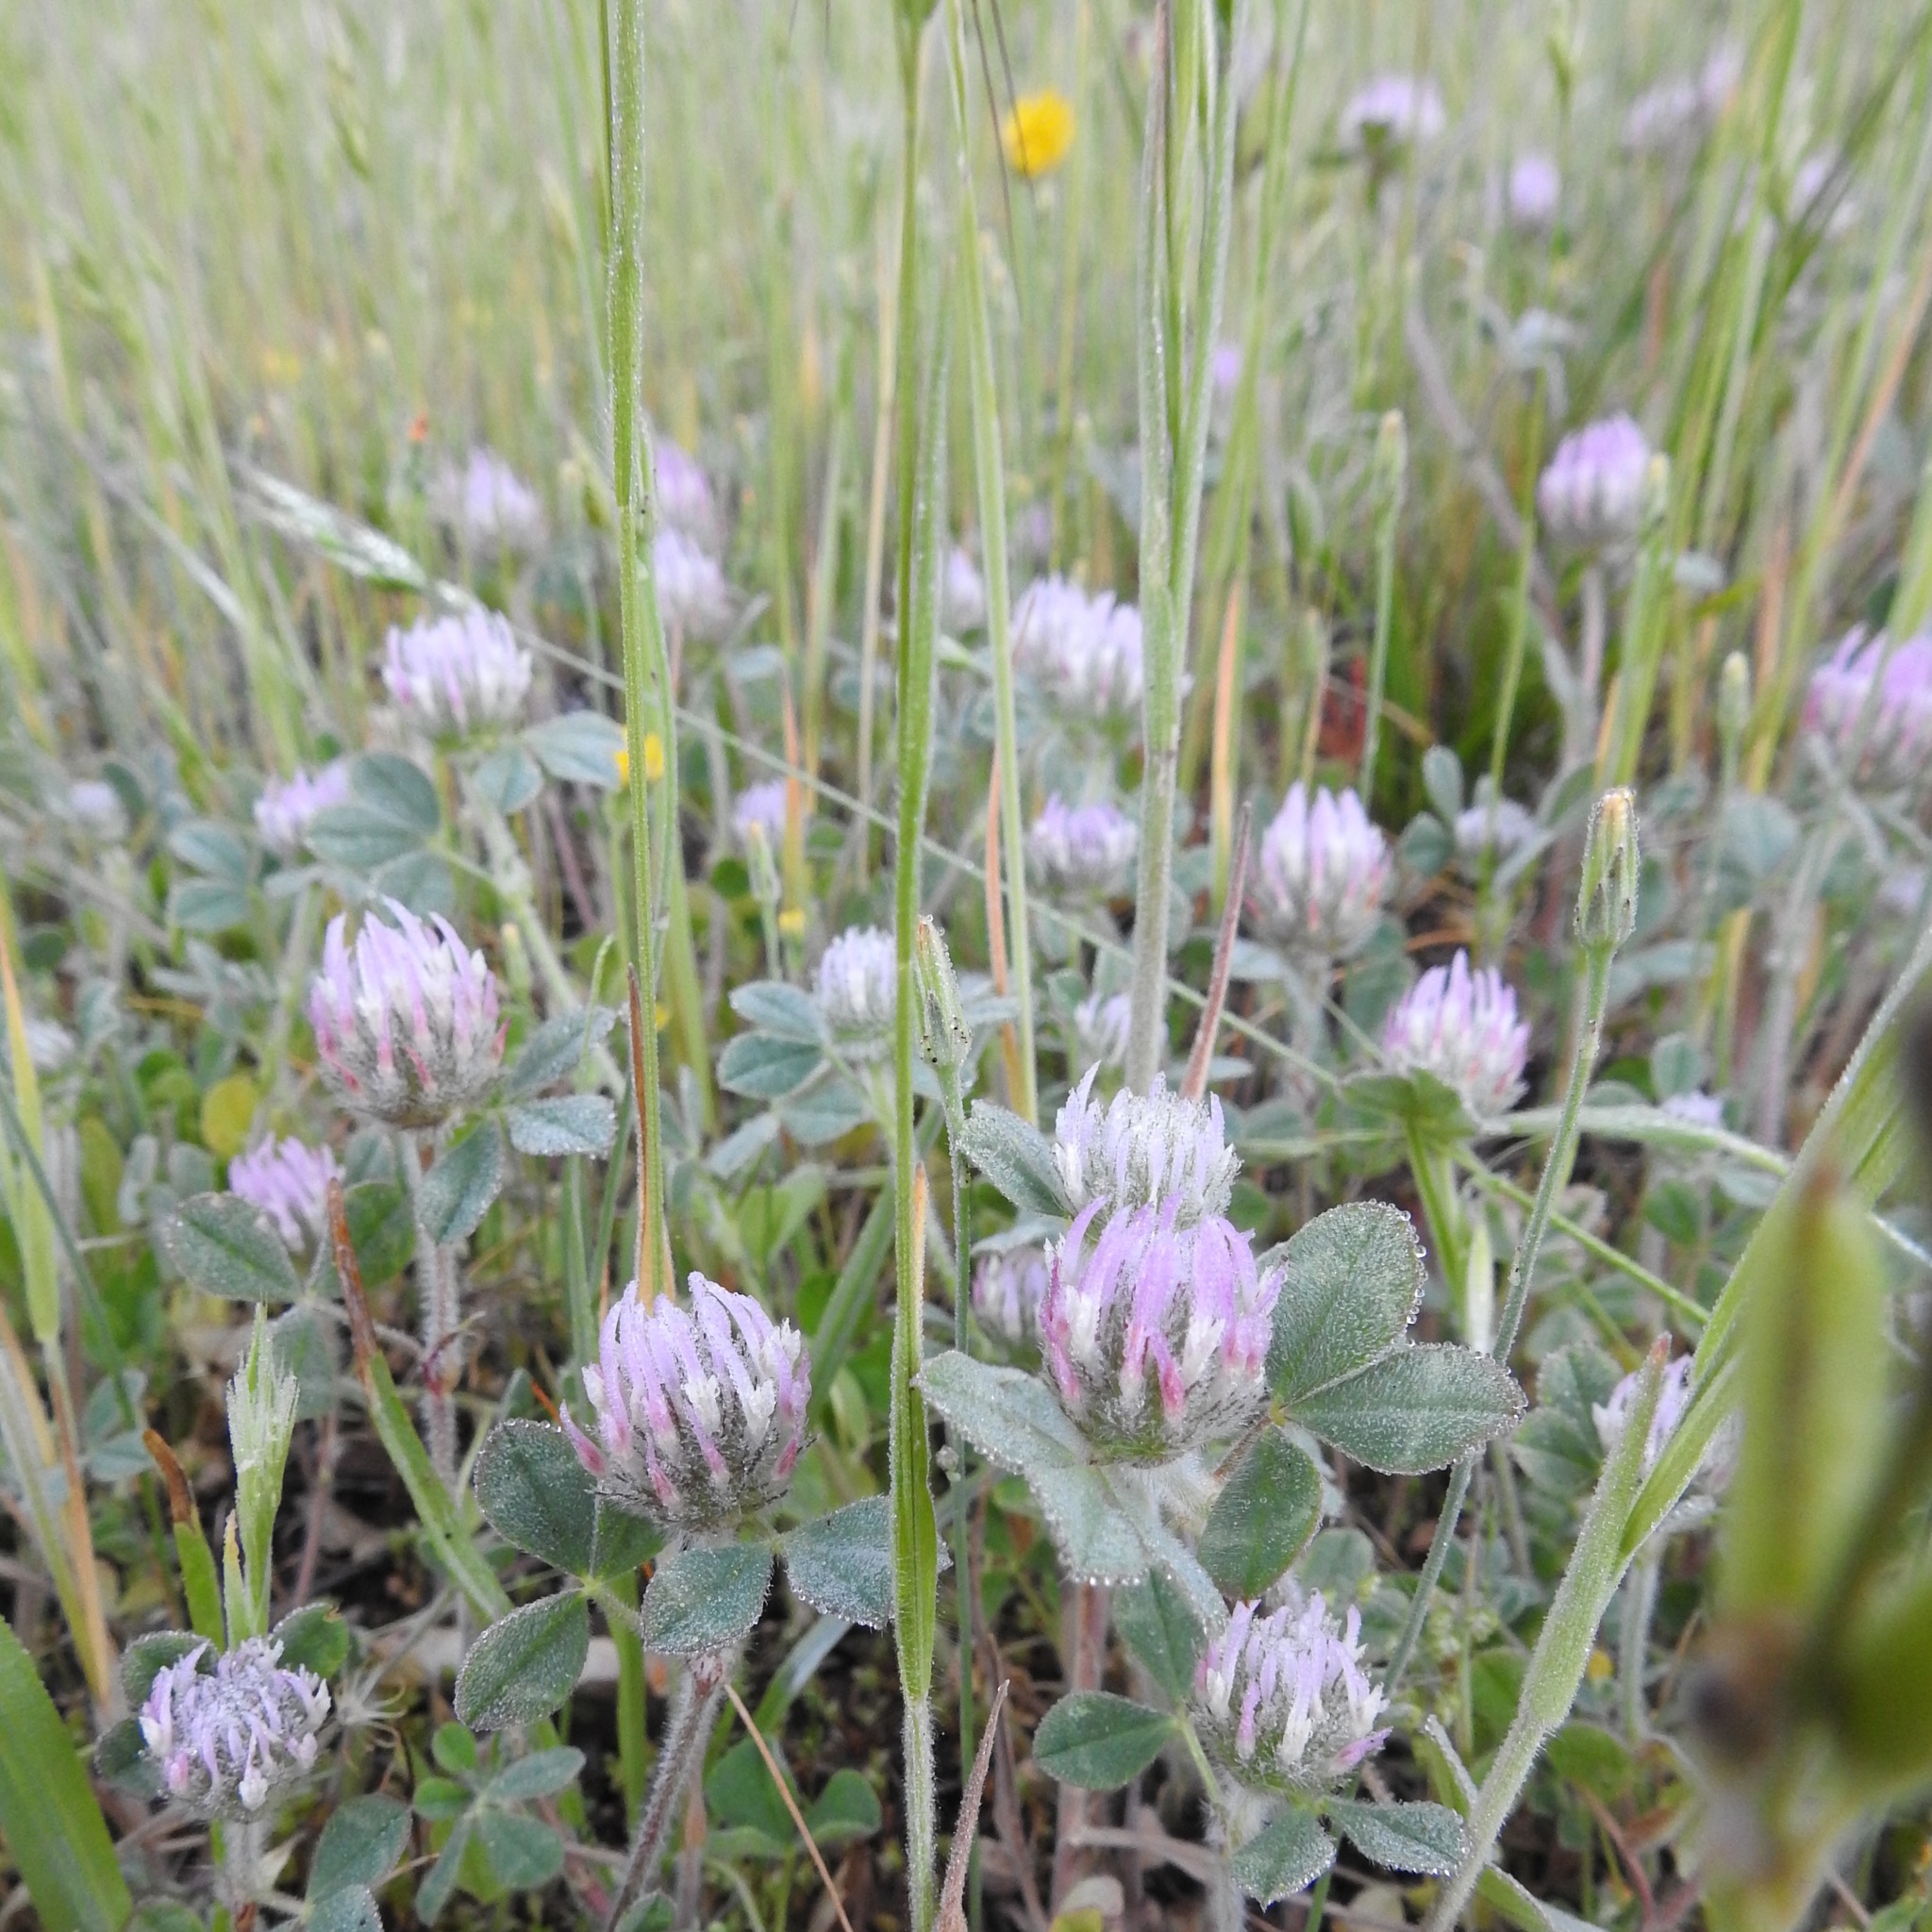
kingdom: Plantae
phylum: Tracheophyta
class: Magnoliopsida
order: Fabales
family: Fabaceae
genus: Trifolium
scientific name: Trifolium hirtum
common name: Rose clover
